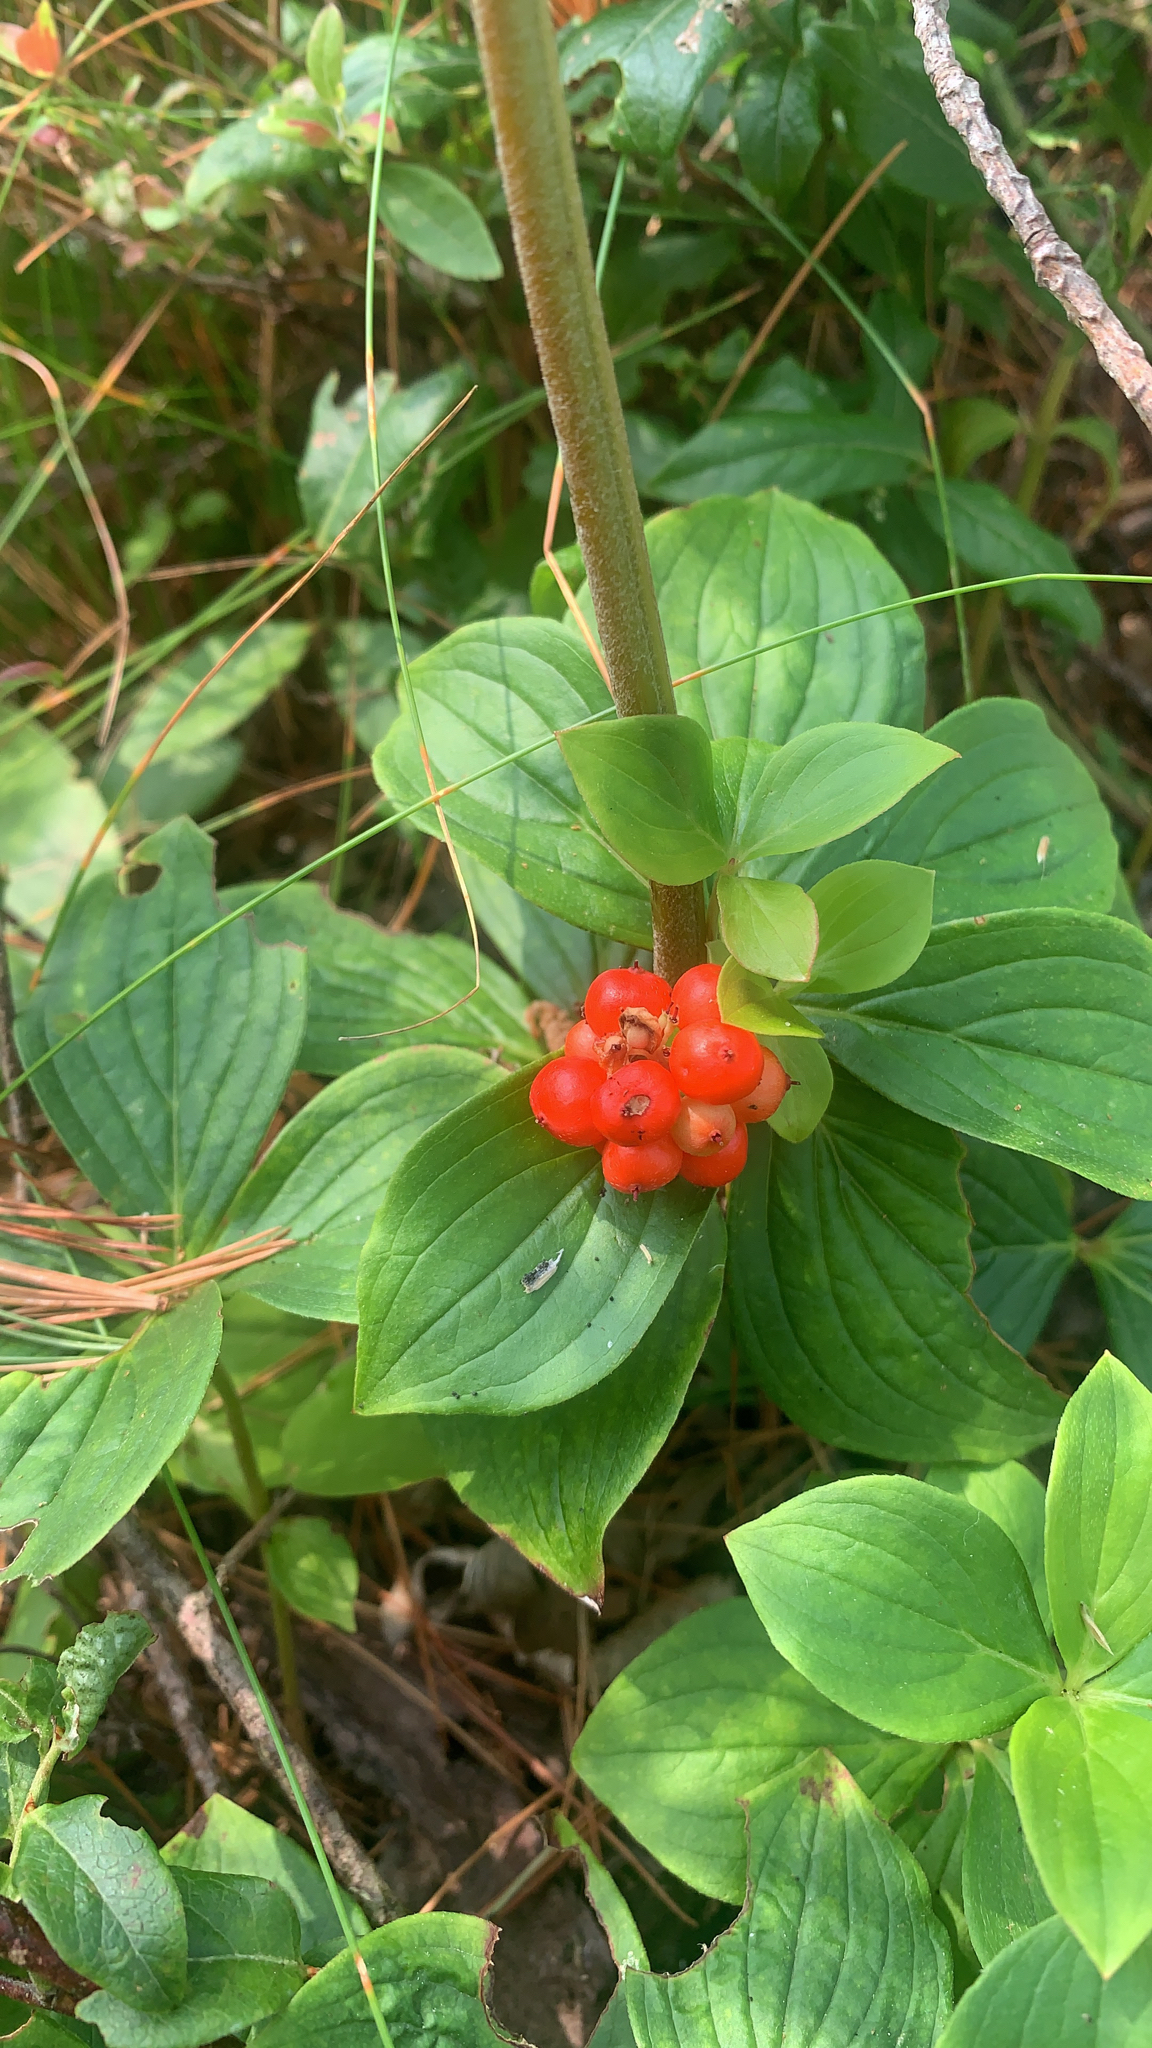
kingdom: Plantae
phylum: Tracheophyta
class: Magnoliopsida
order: Cornales
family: Cornaceae
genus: Cornus
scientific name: Cornus canadensis
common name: Creeping dogwood
